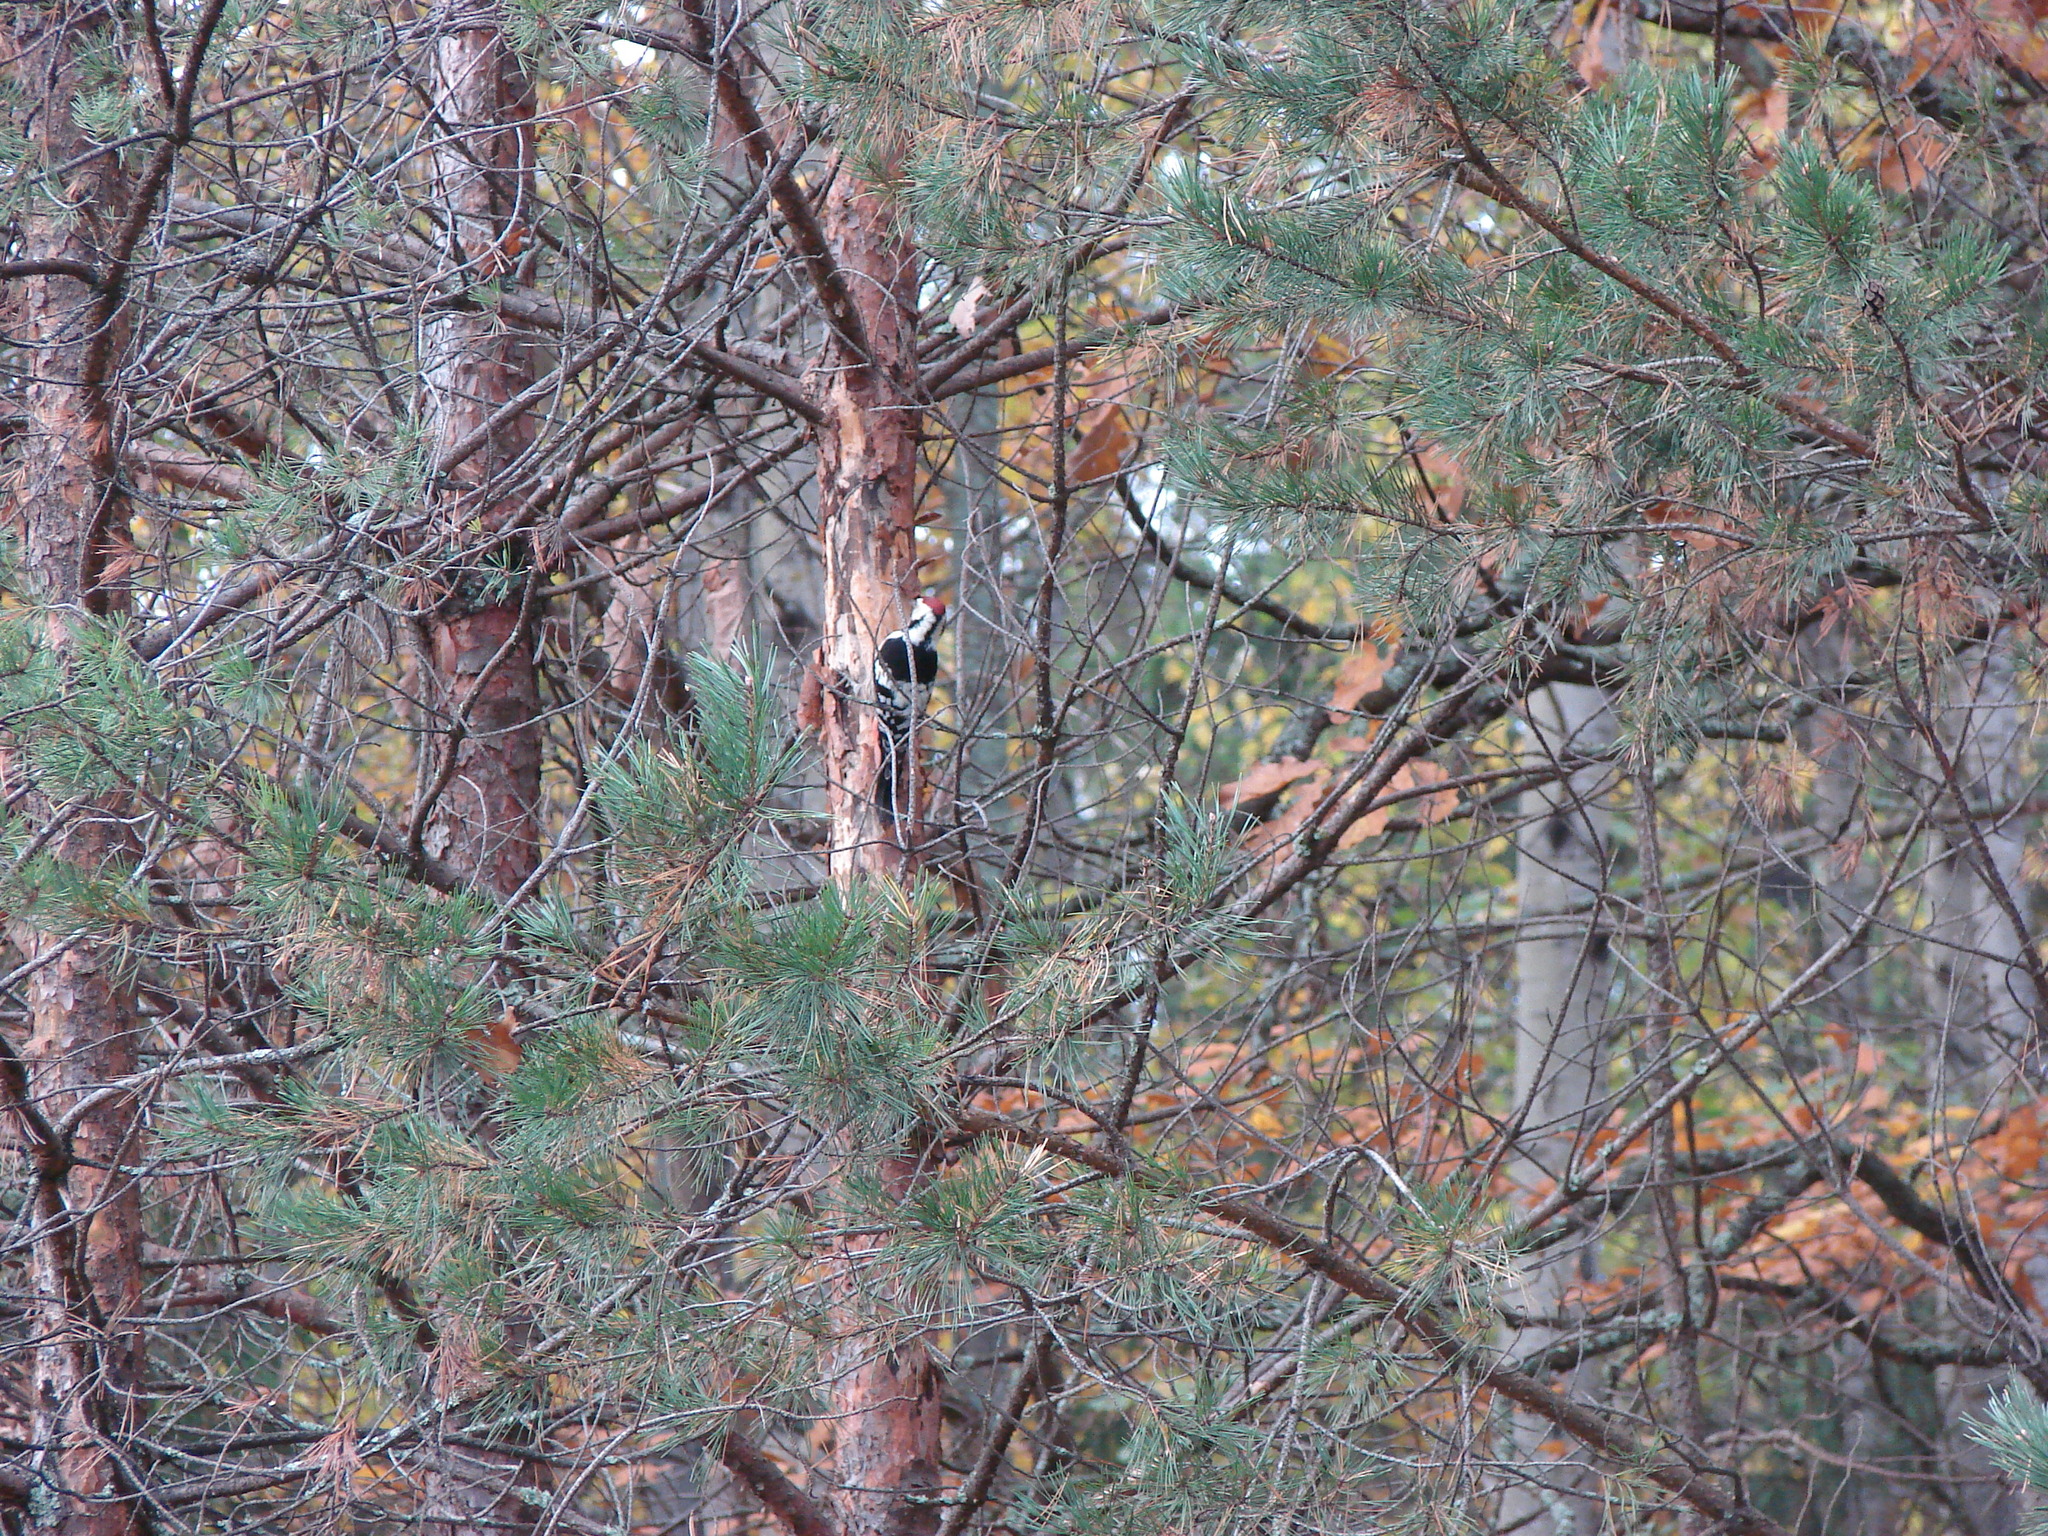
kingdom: Animalia
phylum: Chordata
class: Aves
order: Piciformes
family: Picidae
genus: Dendrocopos
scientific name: Dendrocopos leucotos
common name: White-backed woodpecker
